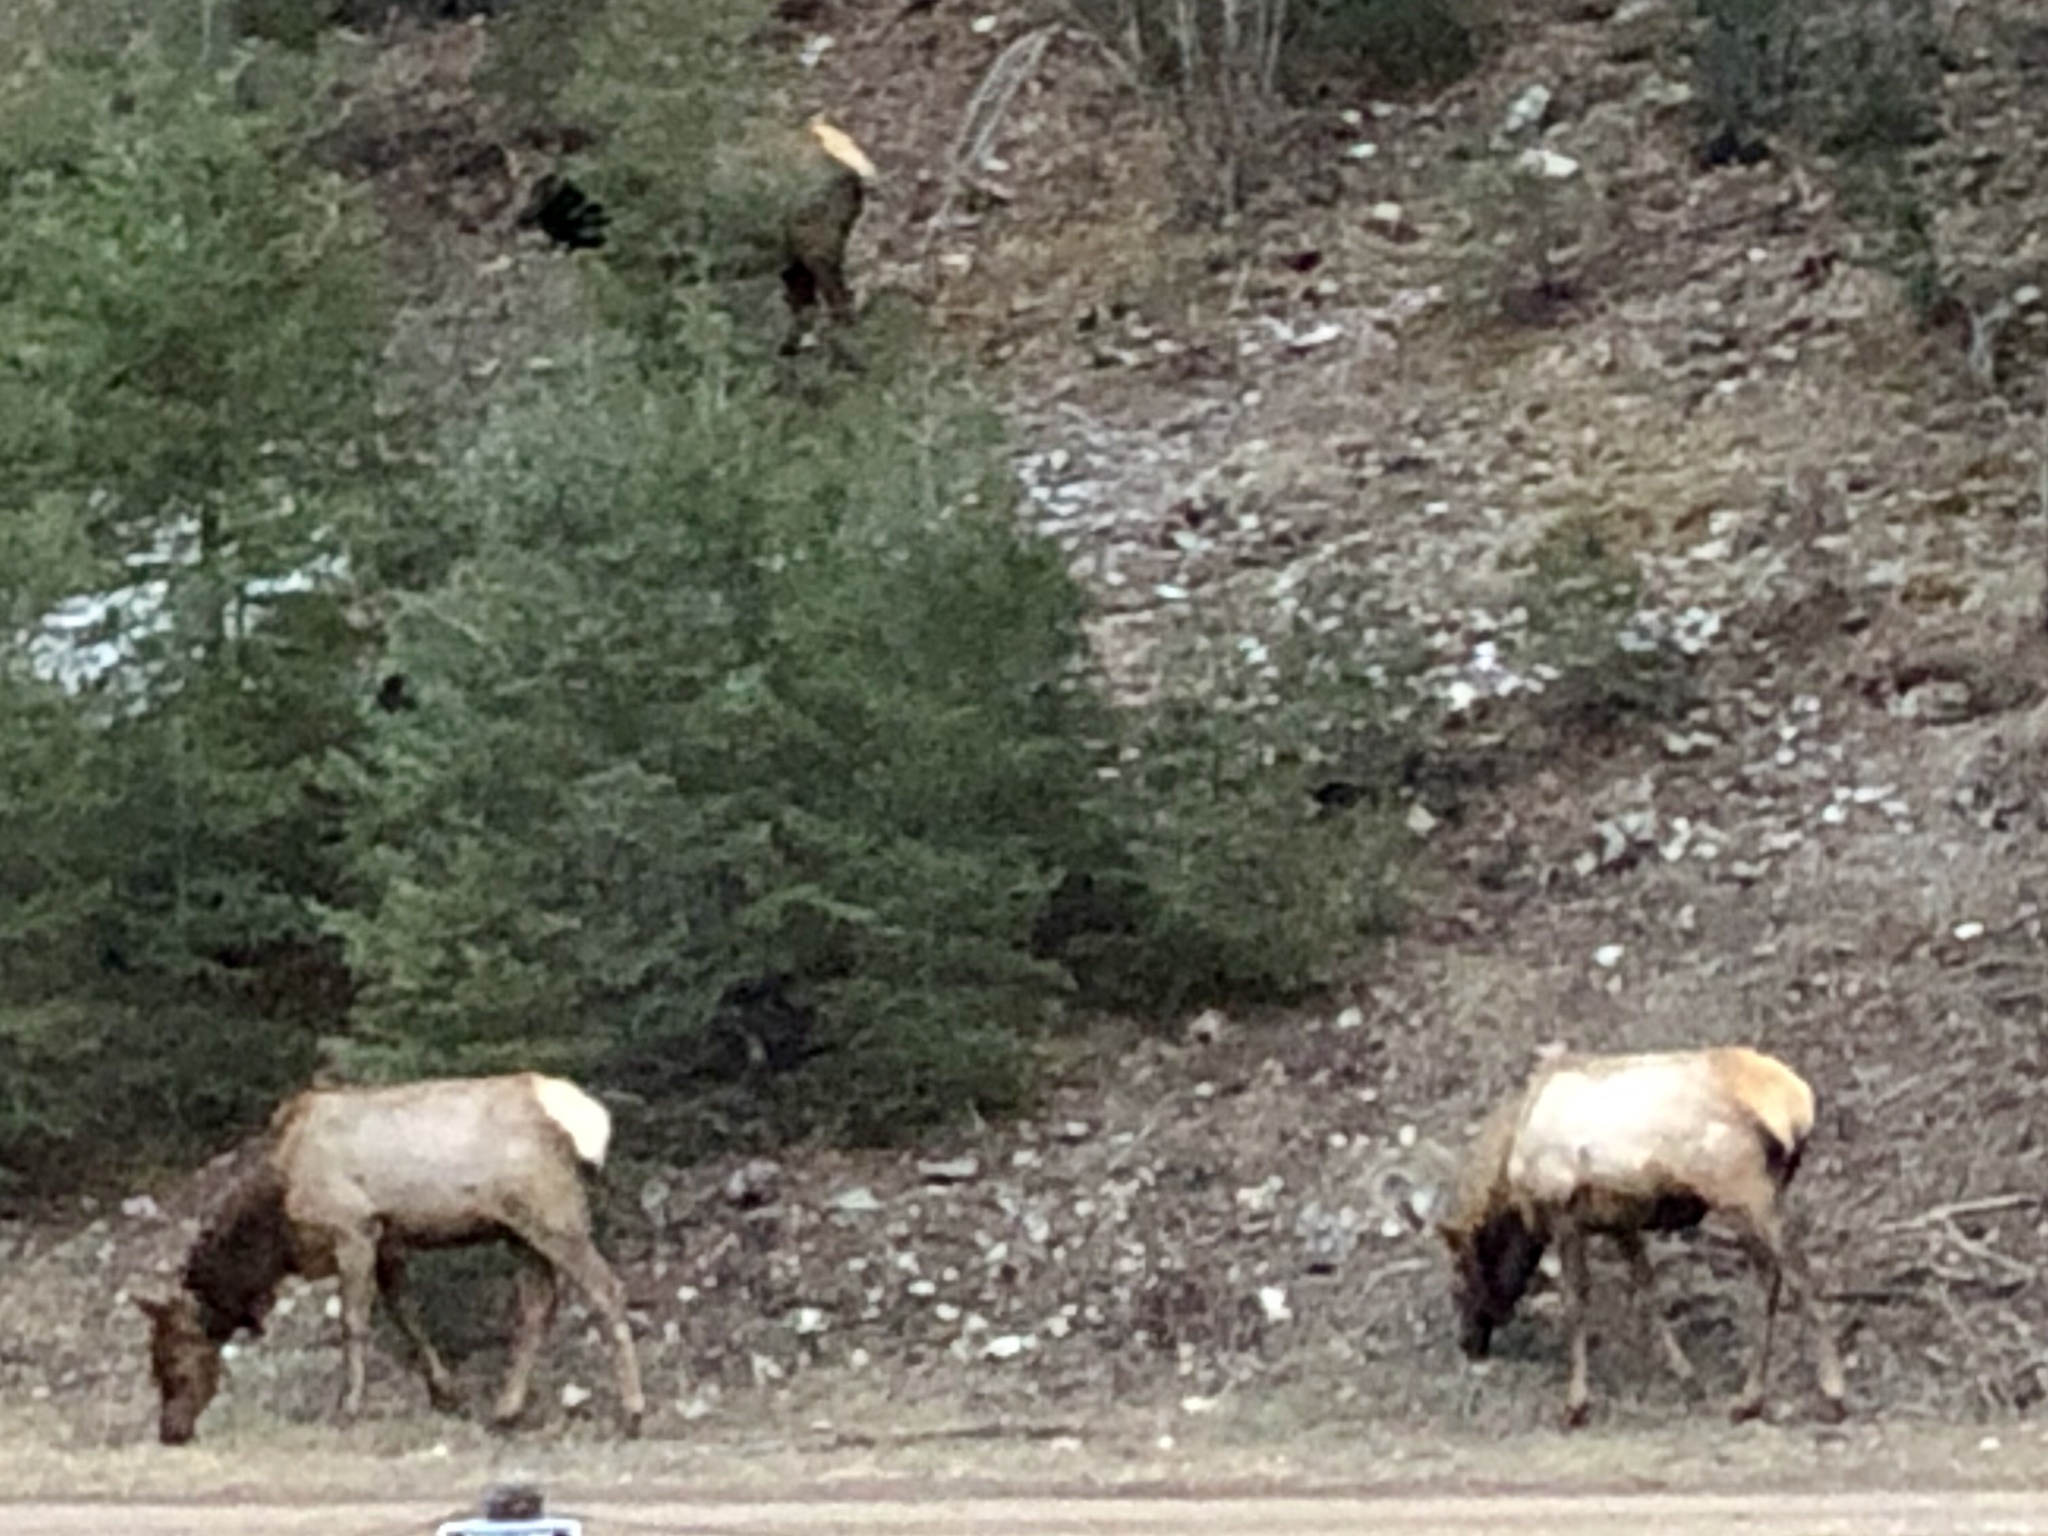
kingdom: Animalia
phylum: Chordata
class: Mammalia
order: Artiodactyla
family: Cervidae
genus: Cervus
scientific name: Cervus elaphus
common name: Red deer
